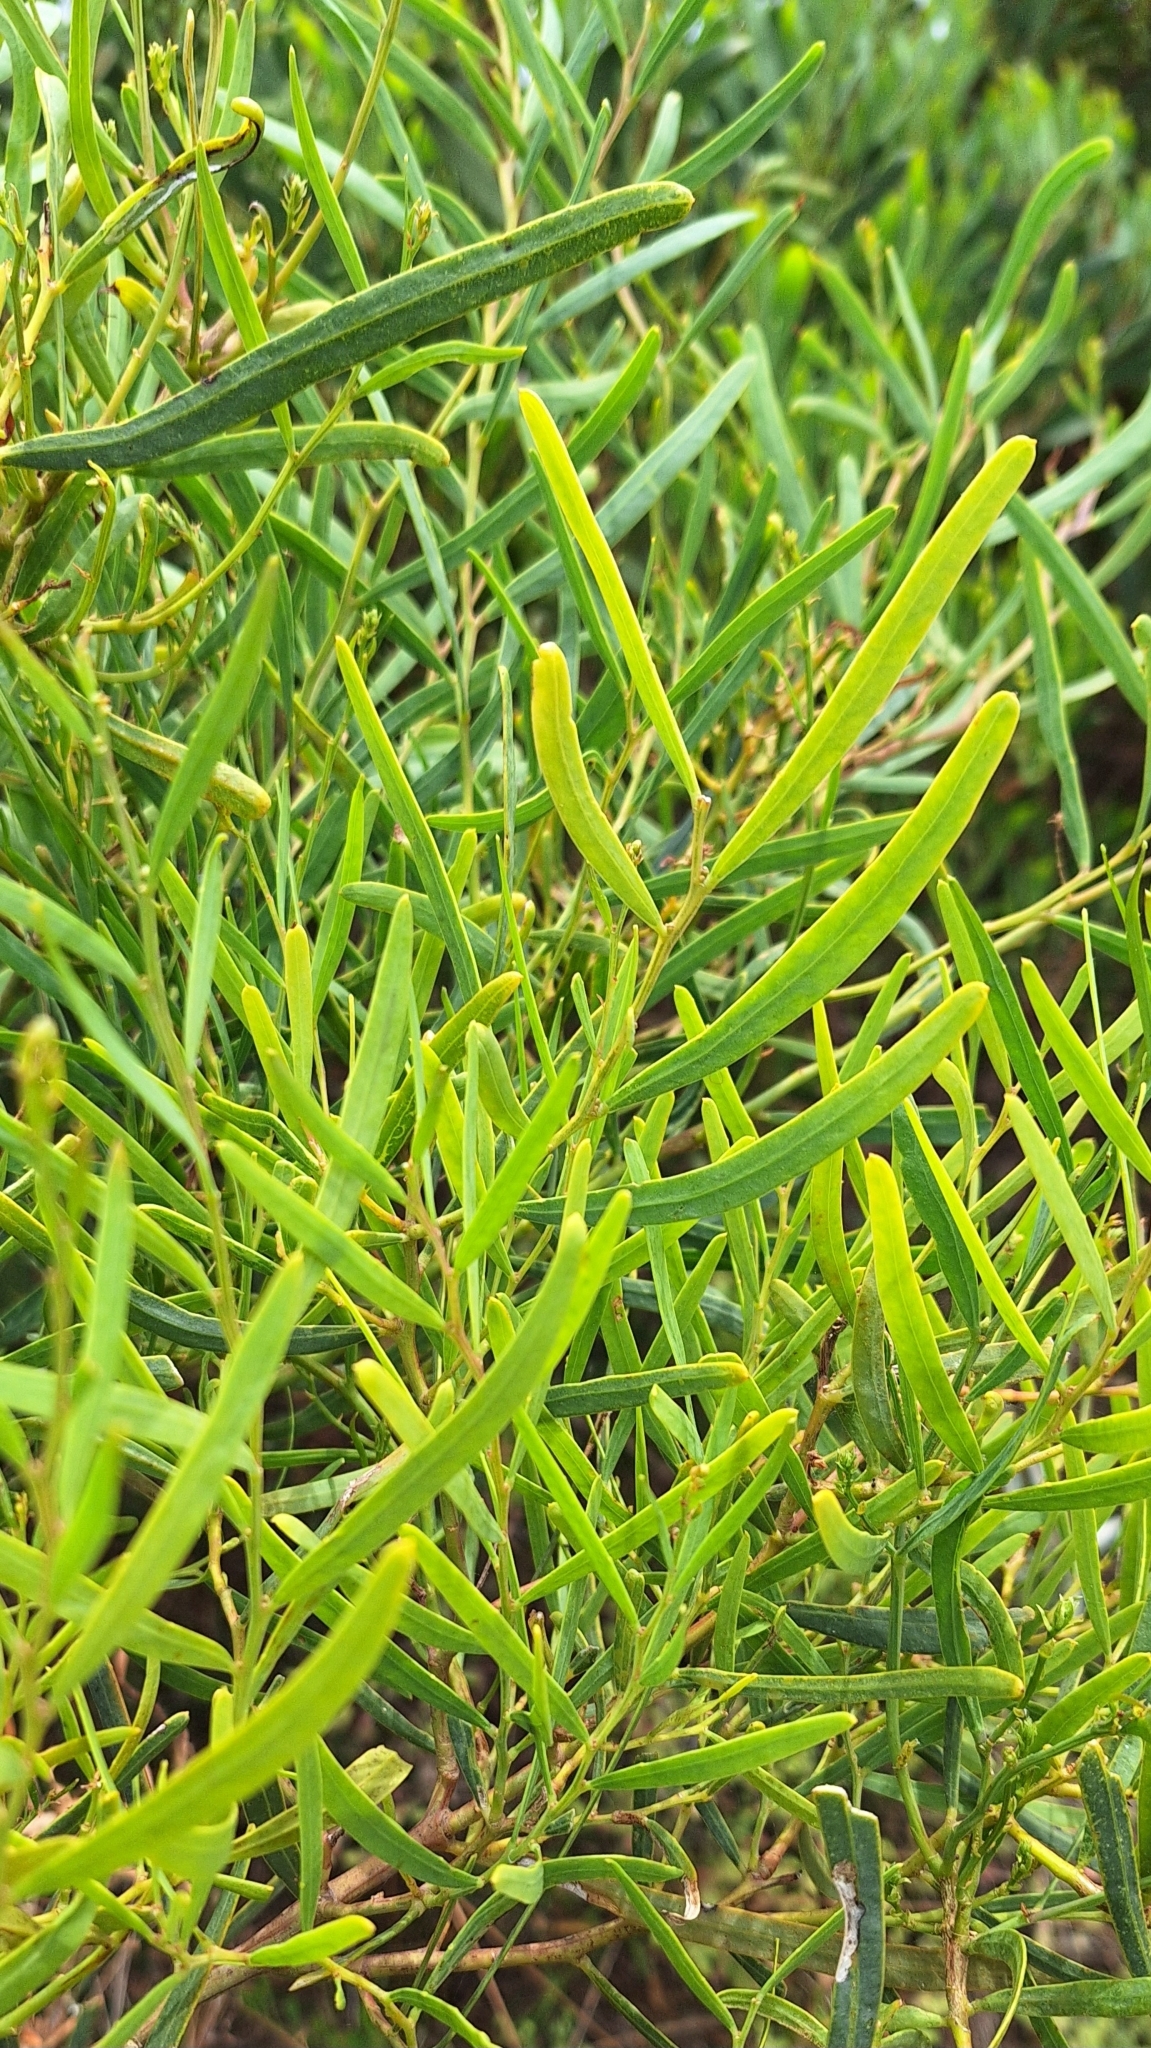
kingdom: Plantae
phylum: Tracheophyta
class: Magnoliopsida
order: Fabales
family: Fabaceae
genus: Acacia
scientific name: Acacia ligulata
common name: Dune wattle
